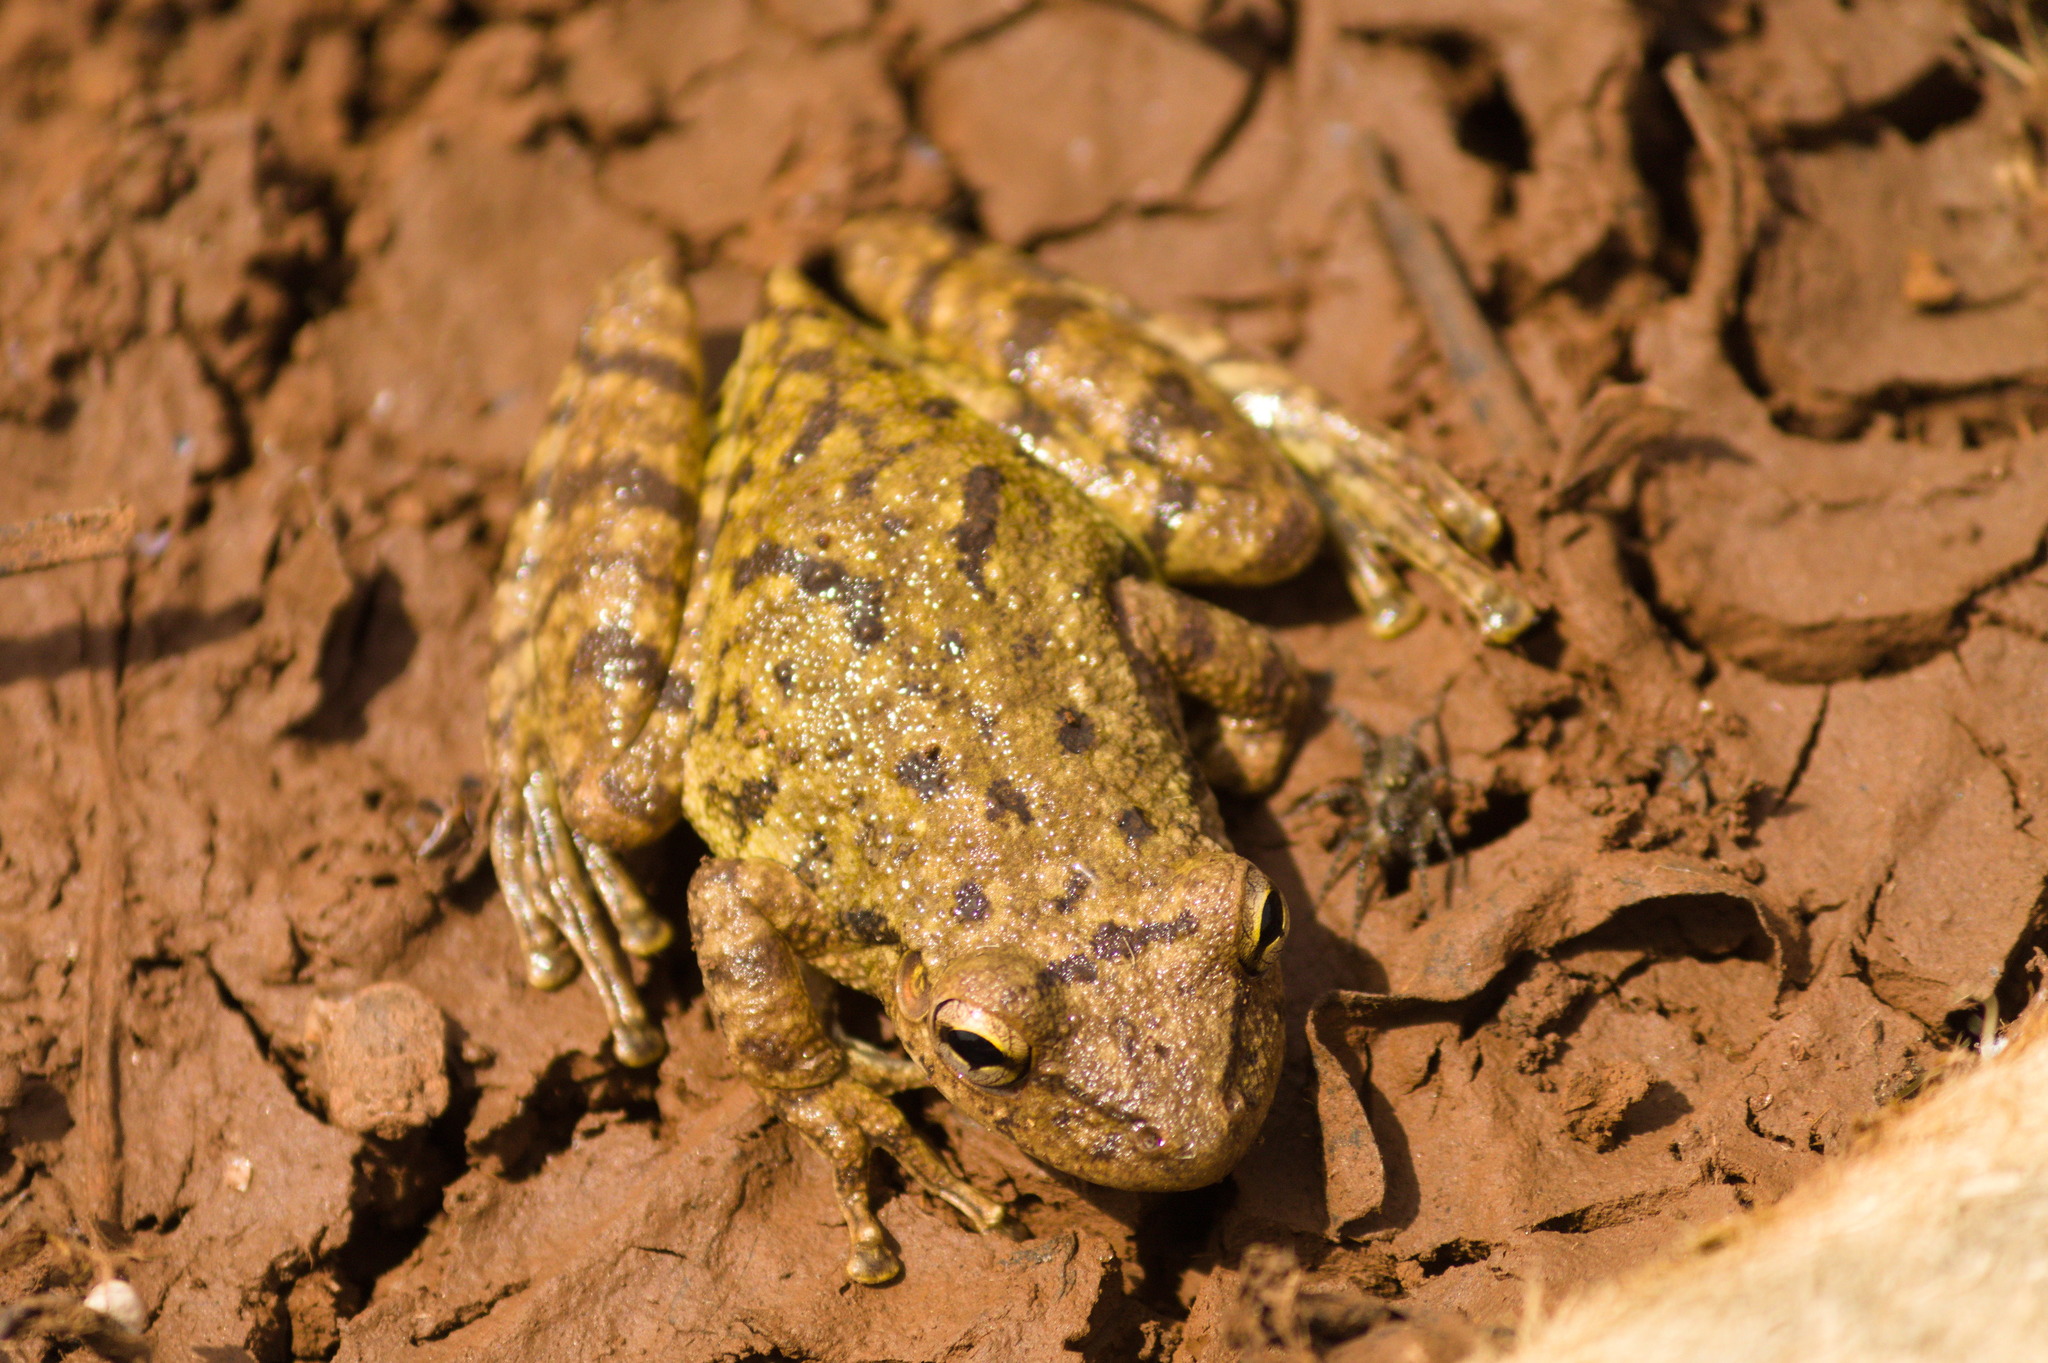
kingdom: Animalia
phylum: Chordata
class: Amphibia
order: Anura
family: Hylidae
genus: Scinax
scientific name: Scinax granulatus
